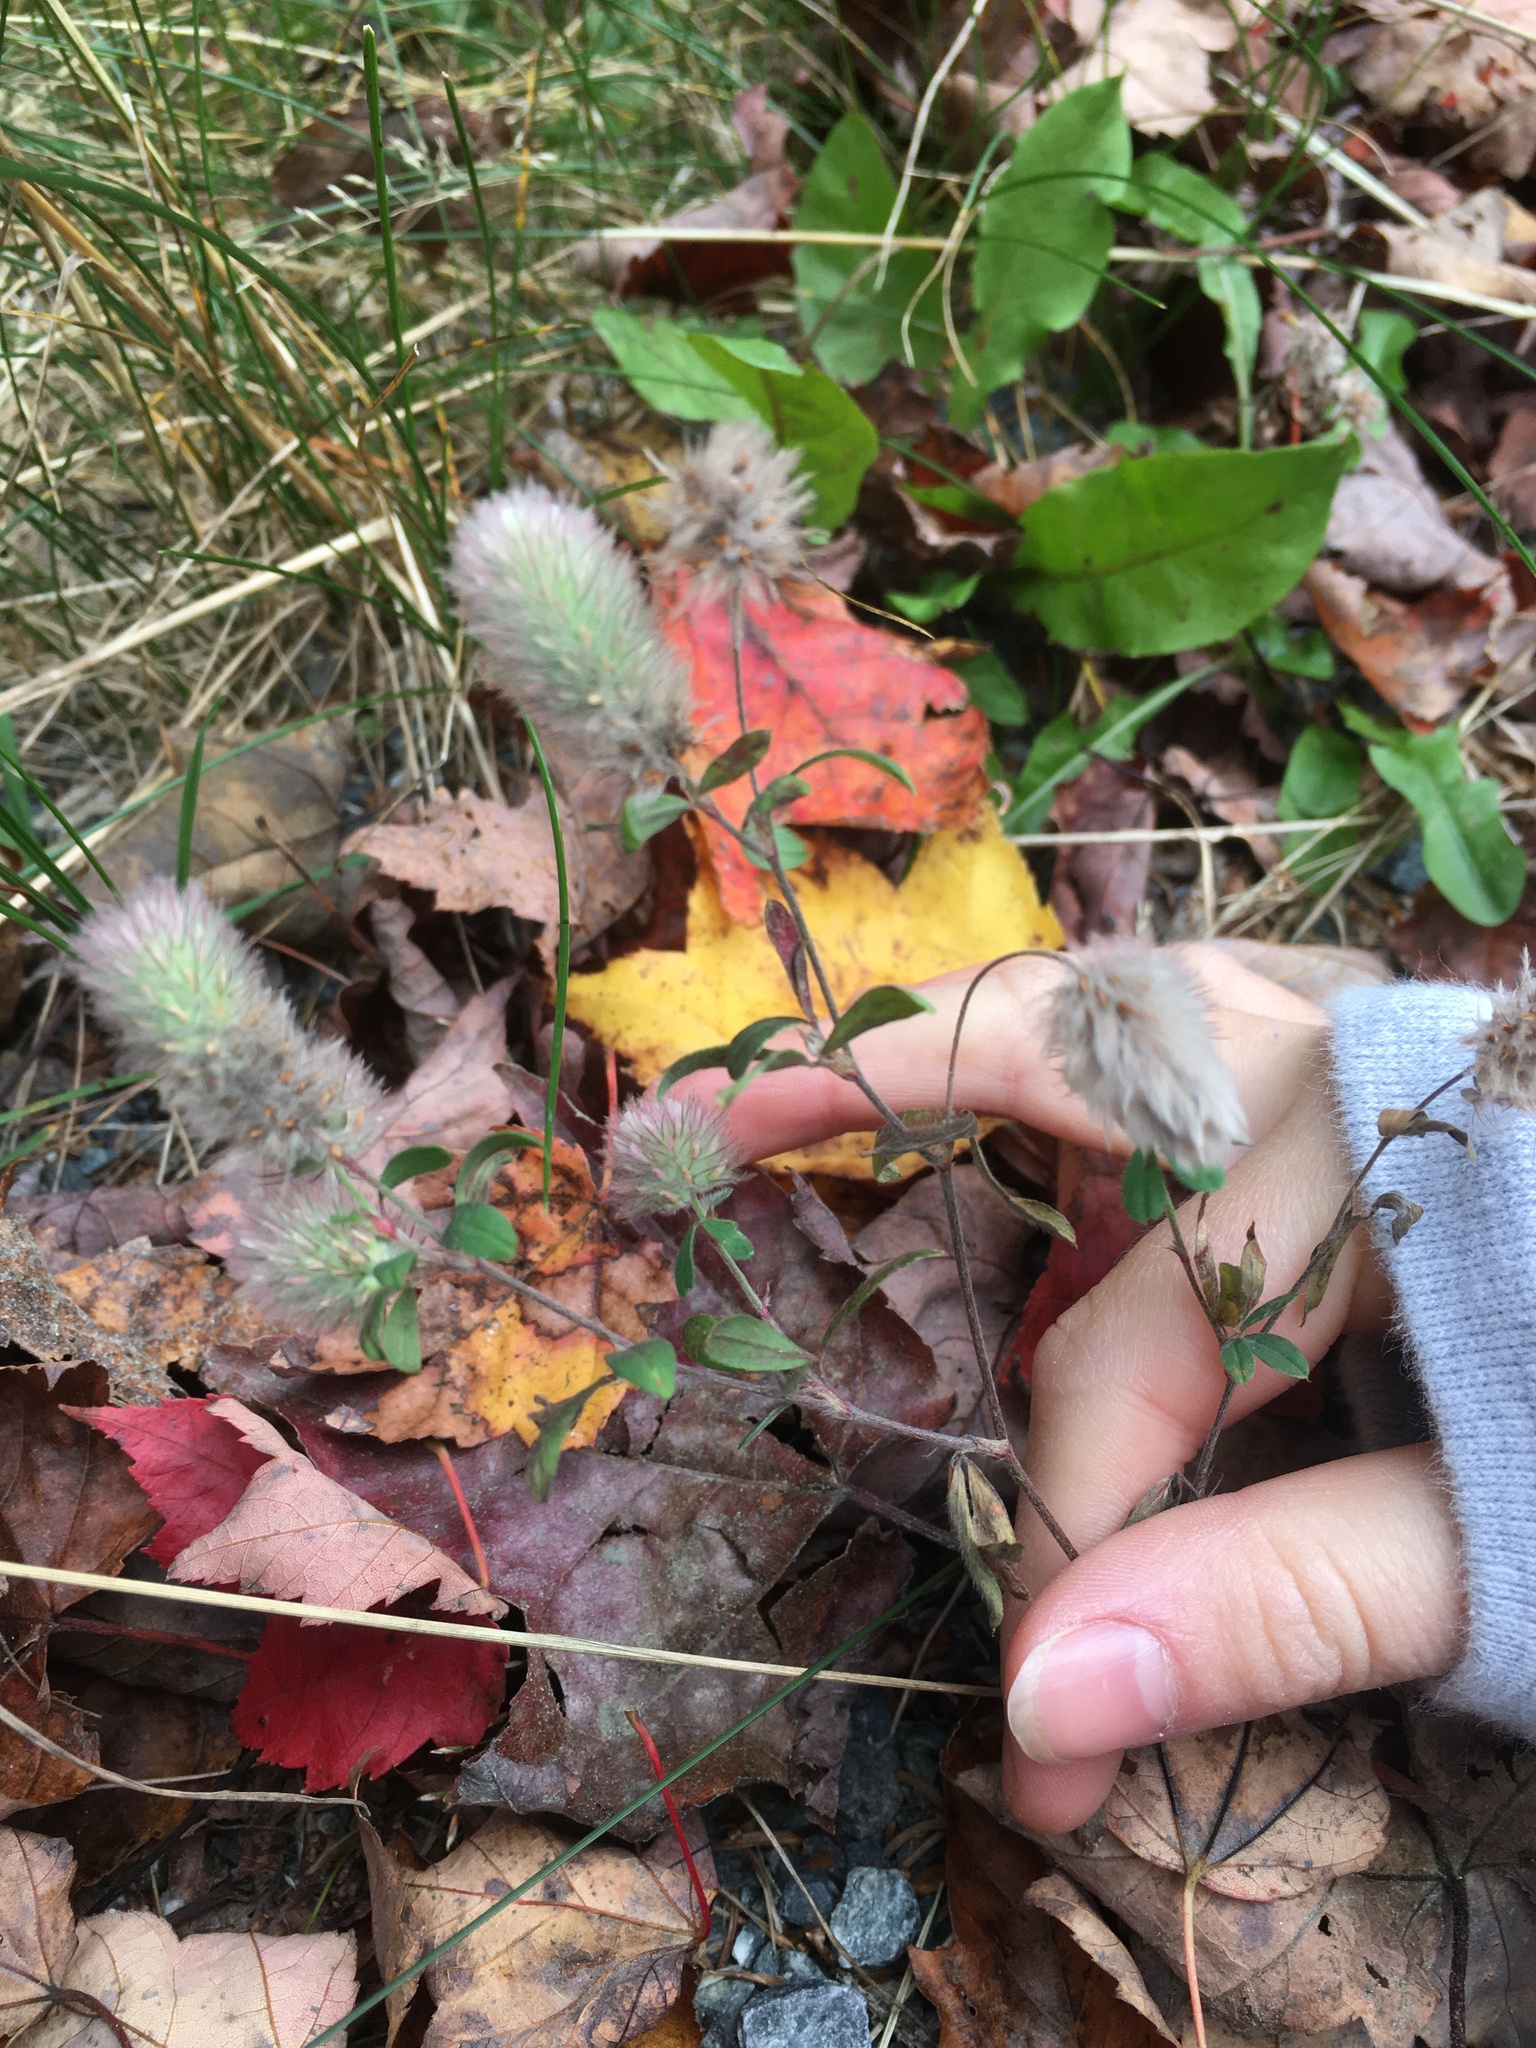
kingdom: Plantae
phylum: Tracheophyta
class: Magnoliopsida
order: Fabales
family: Fabaceae
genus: Trifolium
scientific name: Trifolium arvense
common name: Hare's-foot clover
